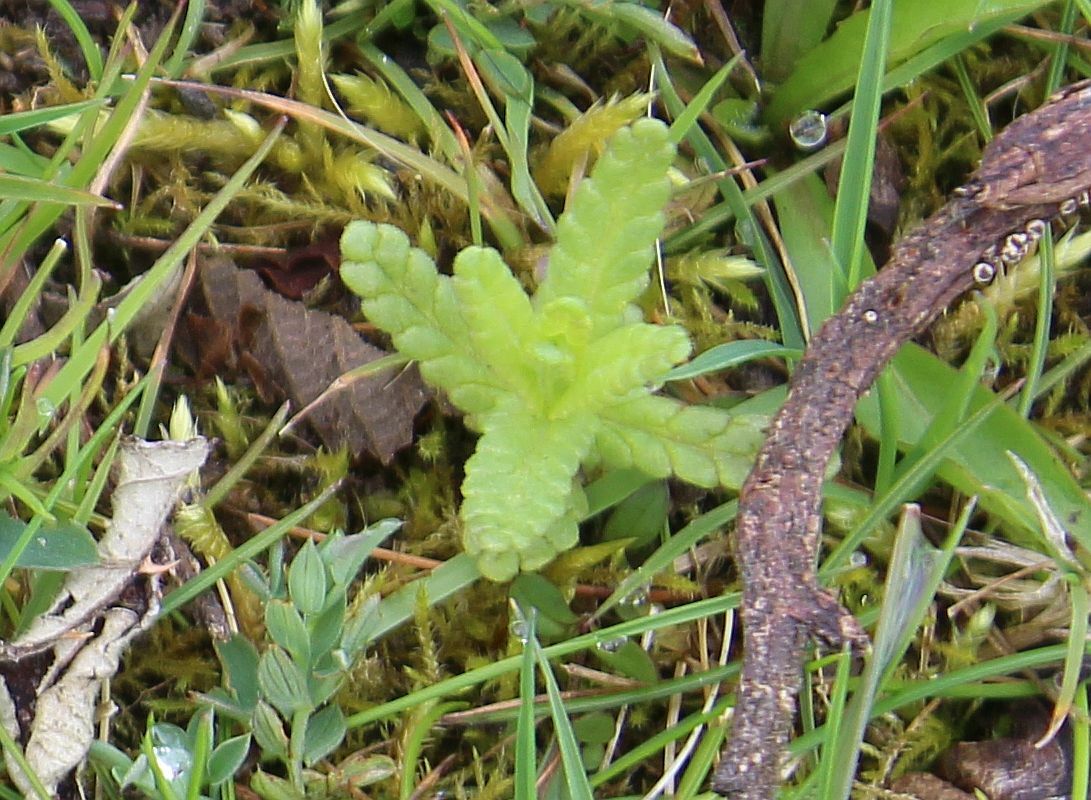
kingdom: Plantae
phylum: Tracheophyta
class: Magnoliopsida
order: Lamiales
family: Orobanchaceae
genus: Rhinanthus
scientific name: Rhinanthus minor
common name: Yellow-rattle
